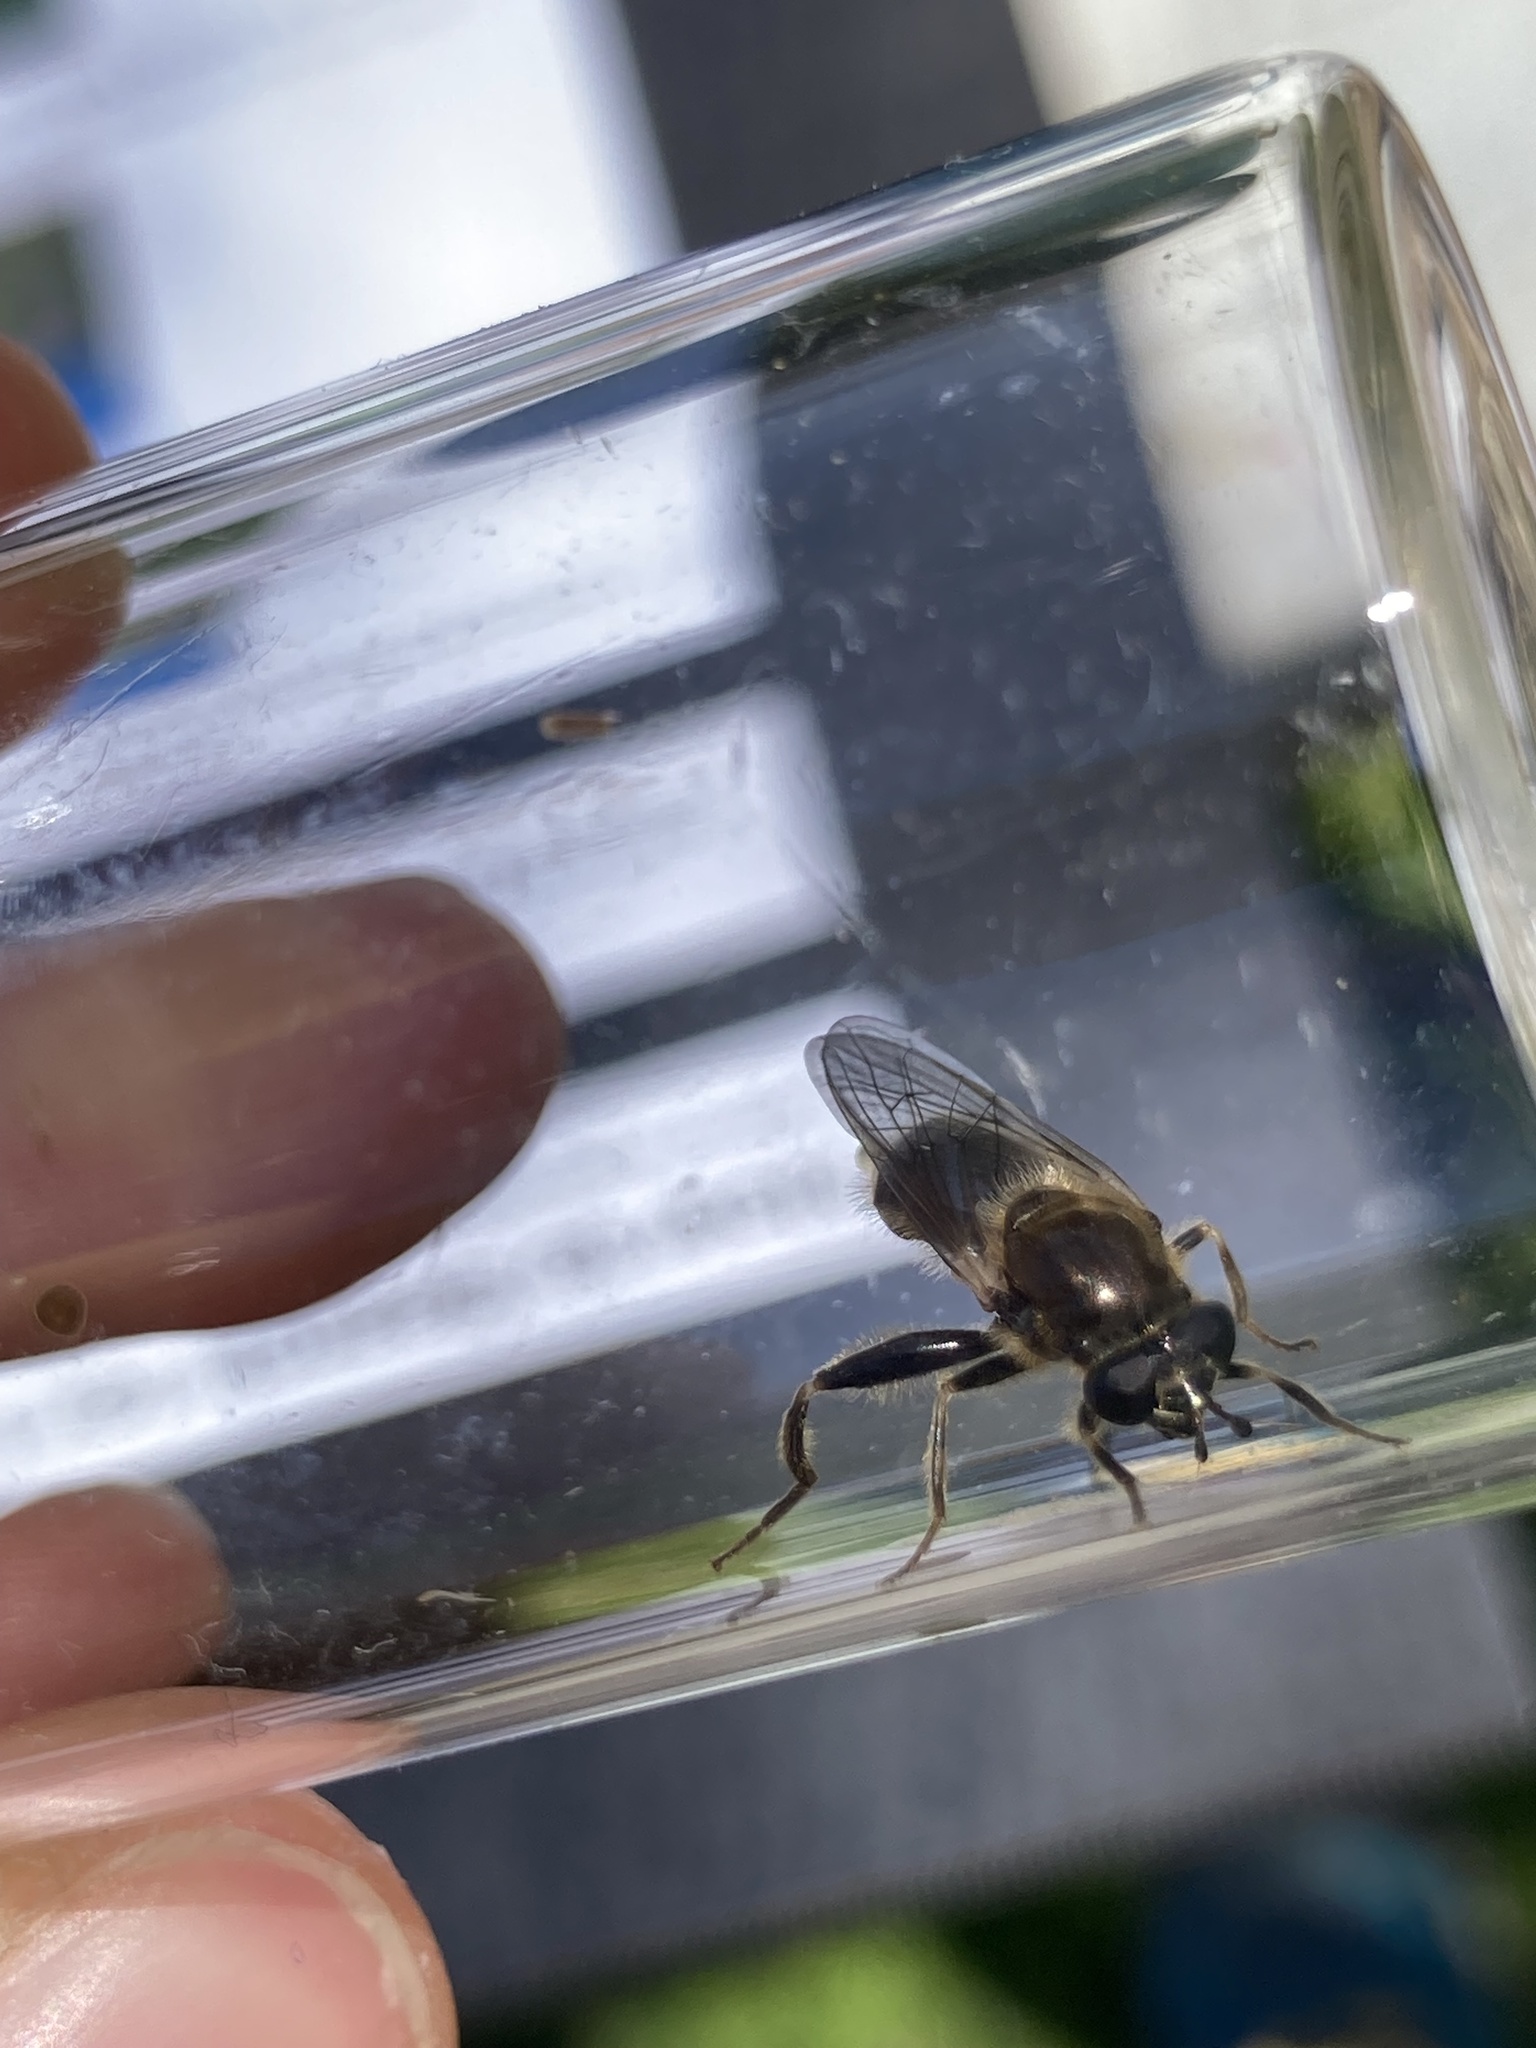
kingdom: Animalia
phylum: Arthropoda
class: Insecta
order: Hymenoptera
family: Colletidae
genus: Colletes
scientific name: Colletes inaequalis
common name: Unequal cellophane bee
